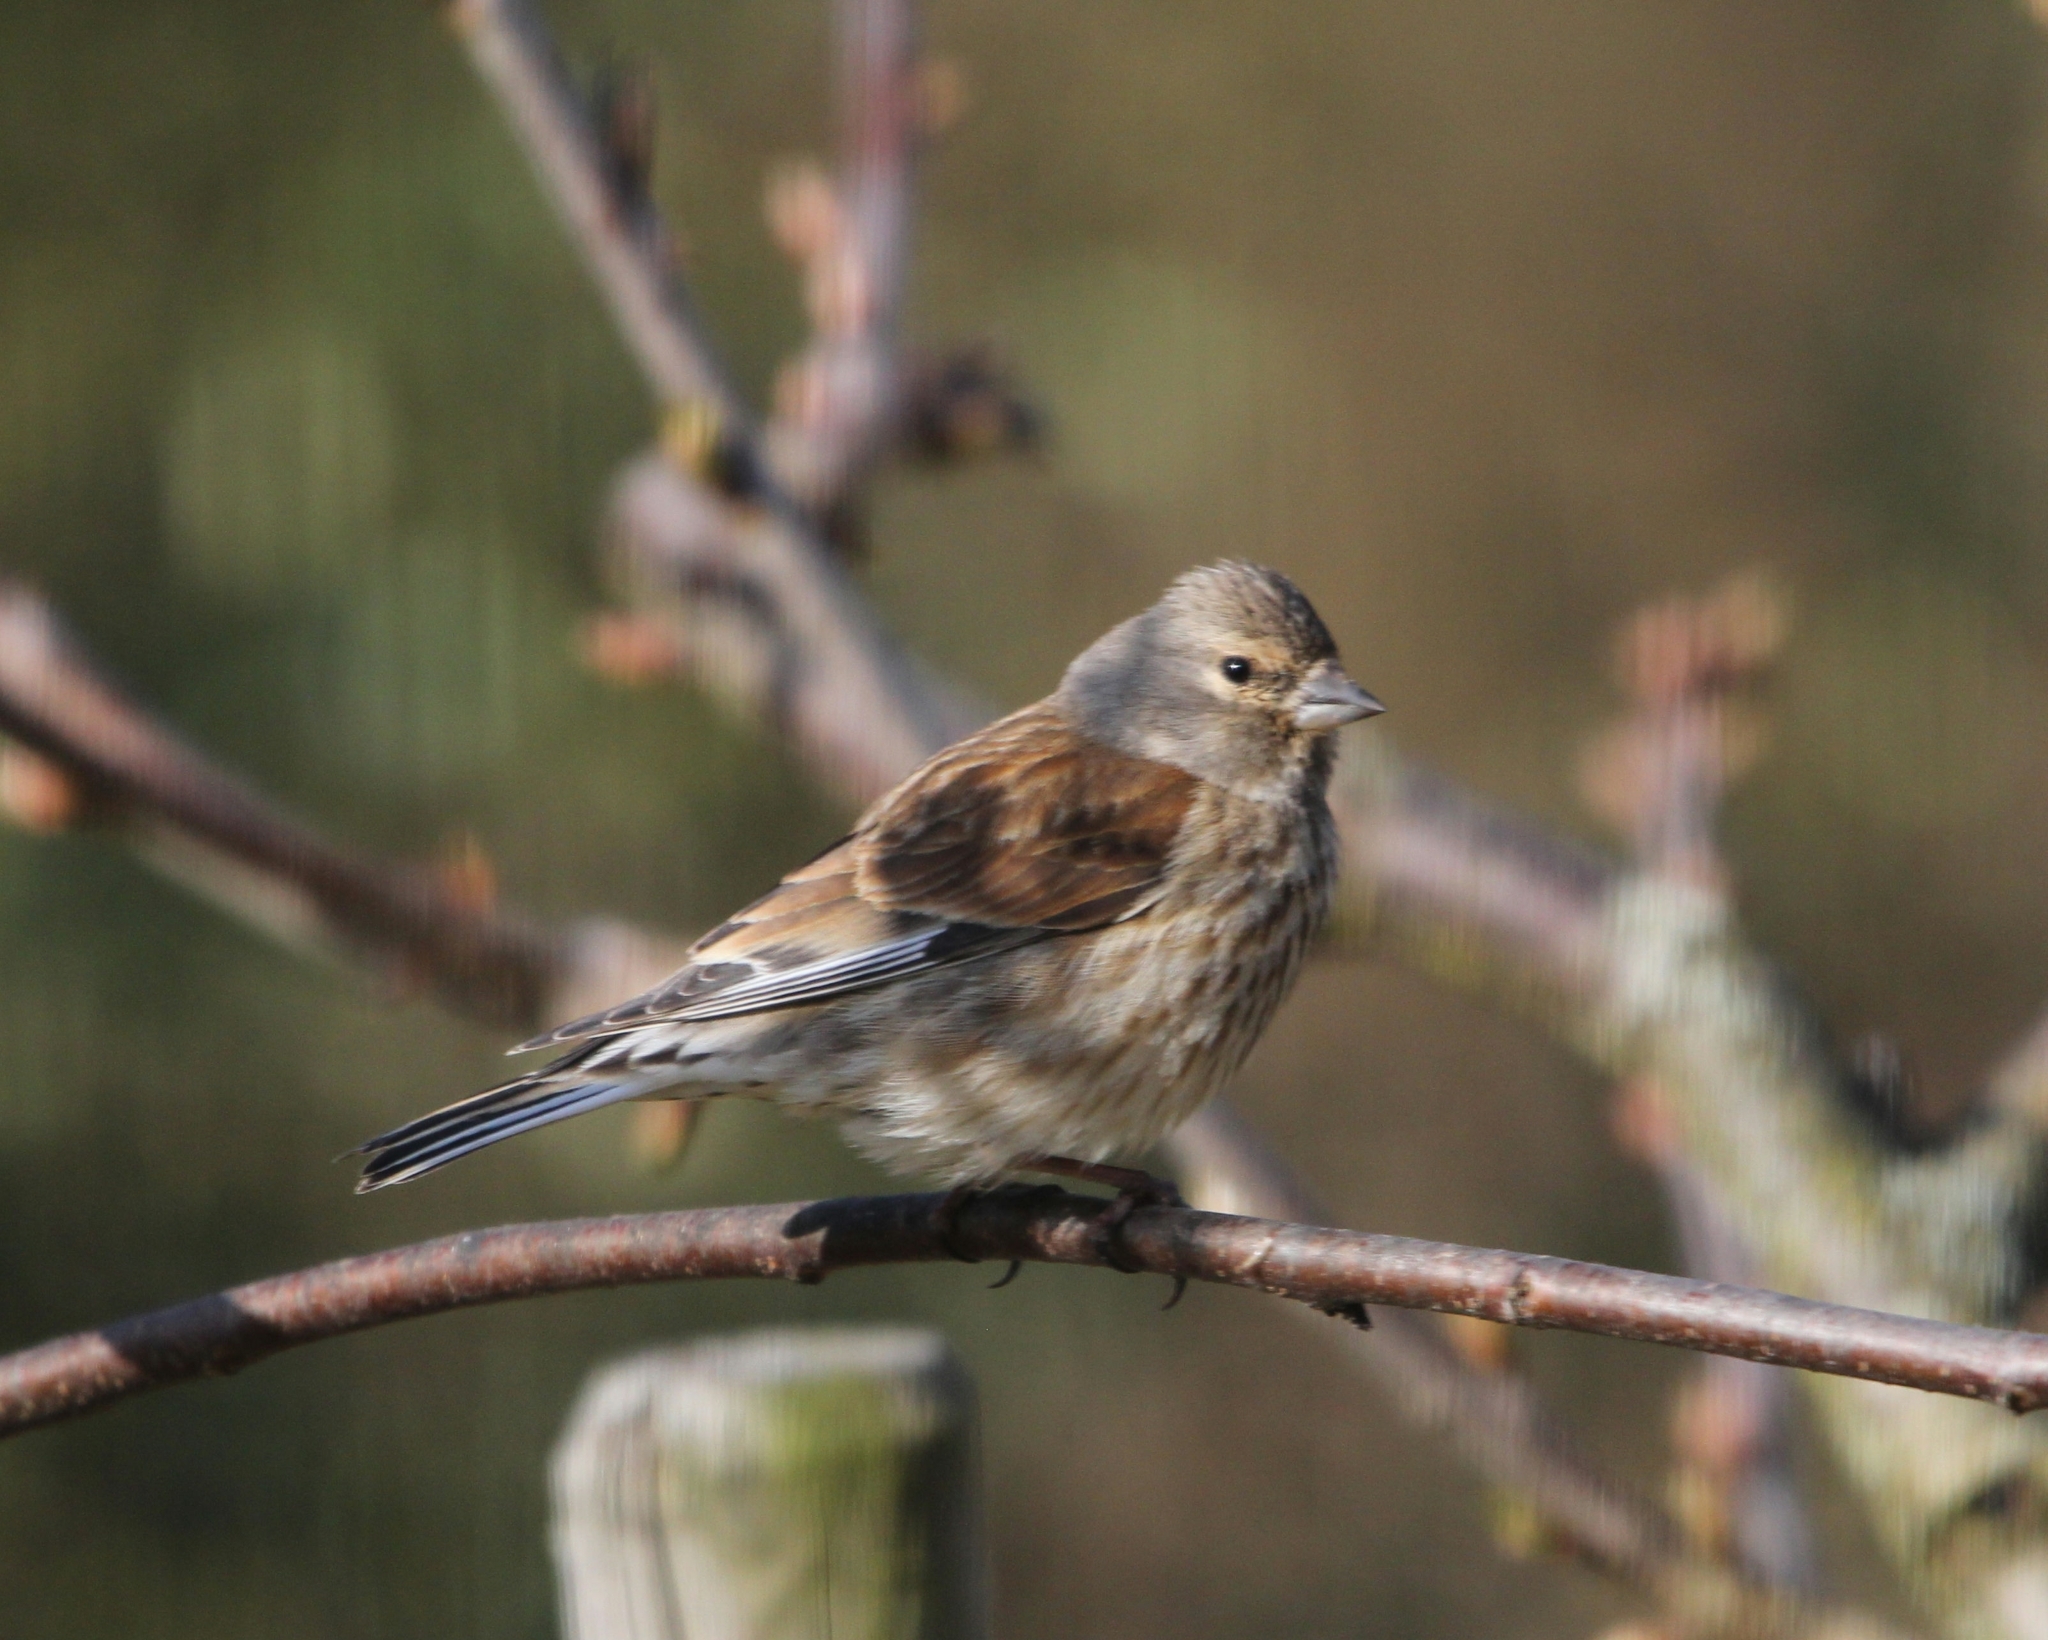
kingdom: Animalia
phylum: Chordata
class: Aves
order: Passeriformes
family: Fringillidae
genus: Linaria
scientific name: Linaria cannabina
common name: Common linnet
